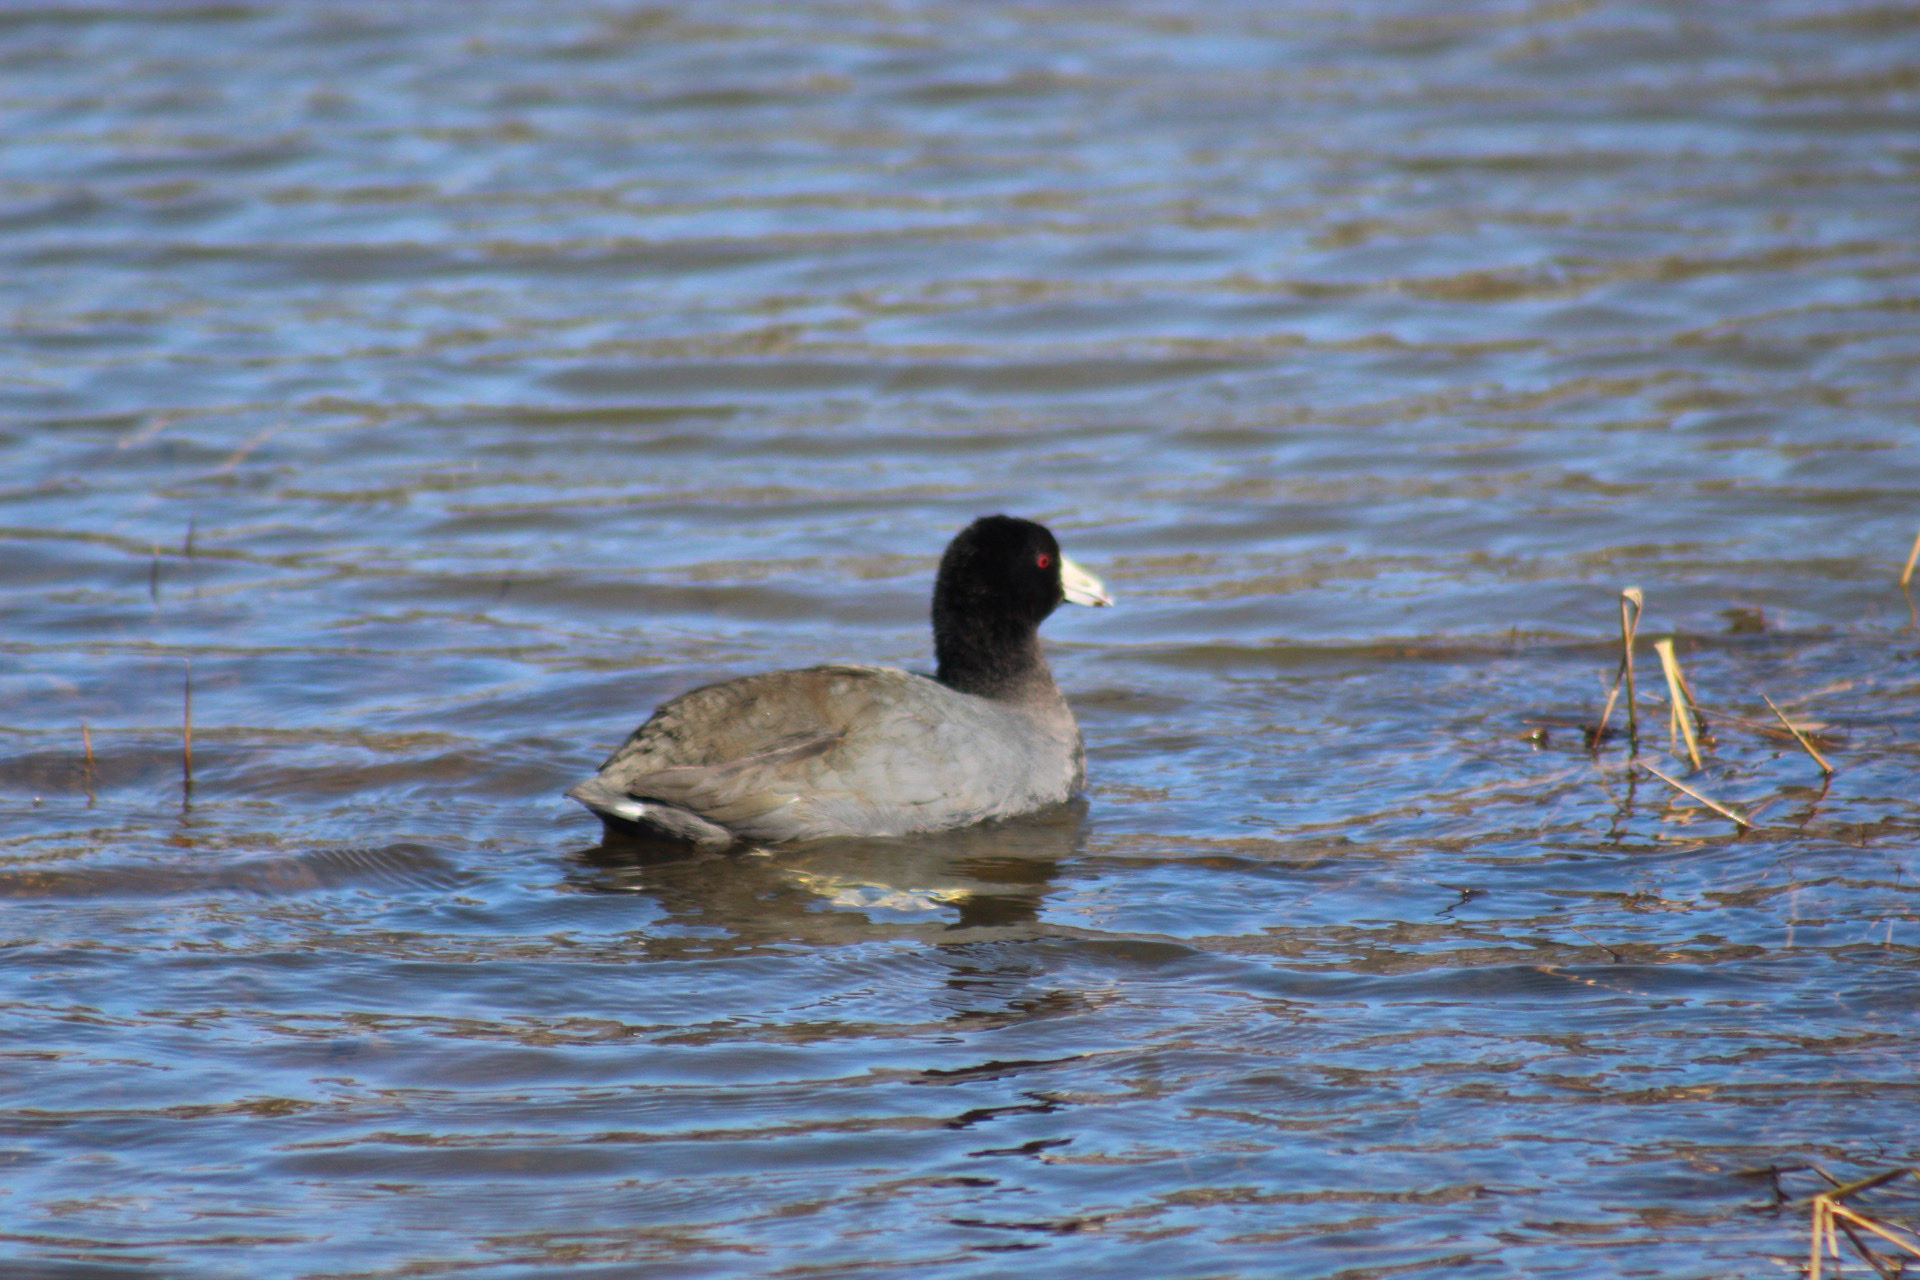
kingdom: Animalia
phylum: Chordata
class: Aves
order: Gruiformes
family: Rallidae
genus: Fulica
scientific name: Fulica americana
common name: American coot
